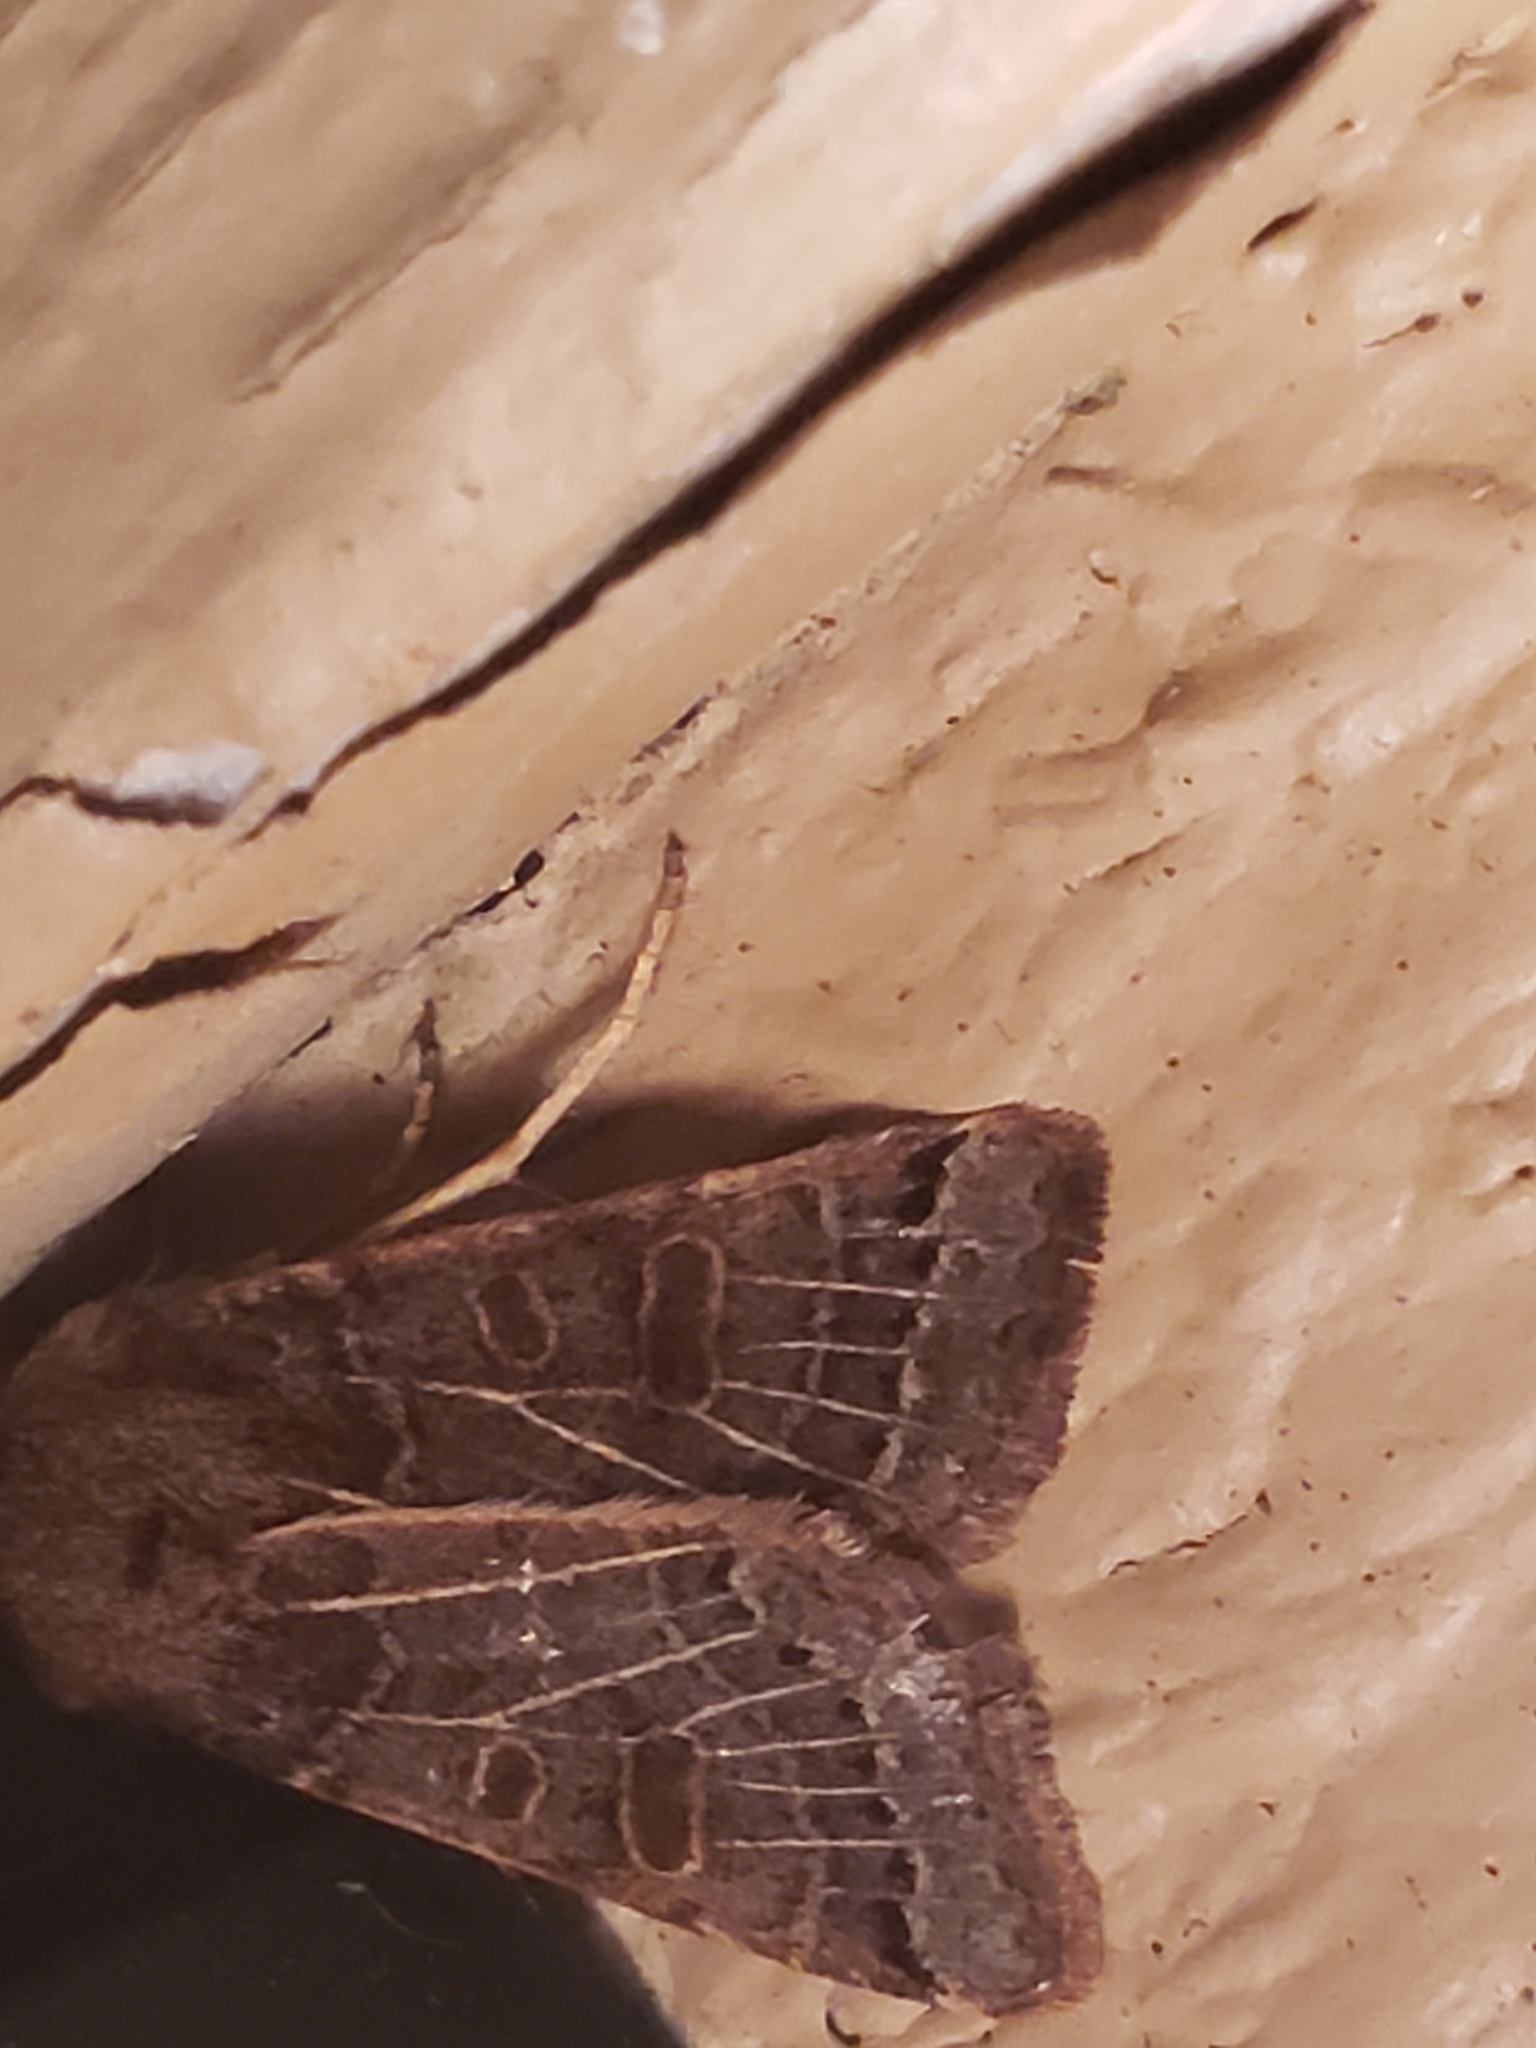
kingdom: Animalia
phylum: Arthropoda
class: Insecta
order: Lepidoptera
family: Noctuidae
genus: Agrochola
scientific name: Agrochola lunosa
